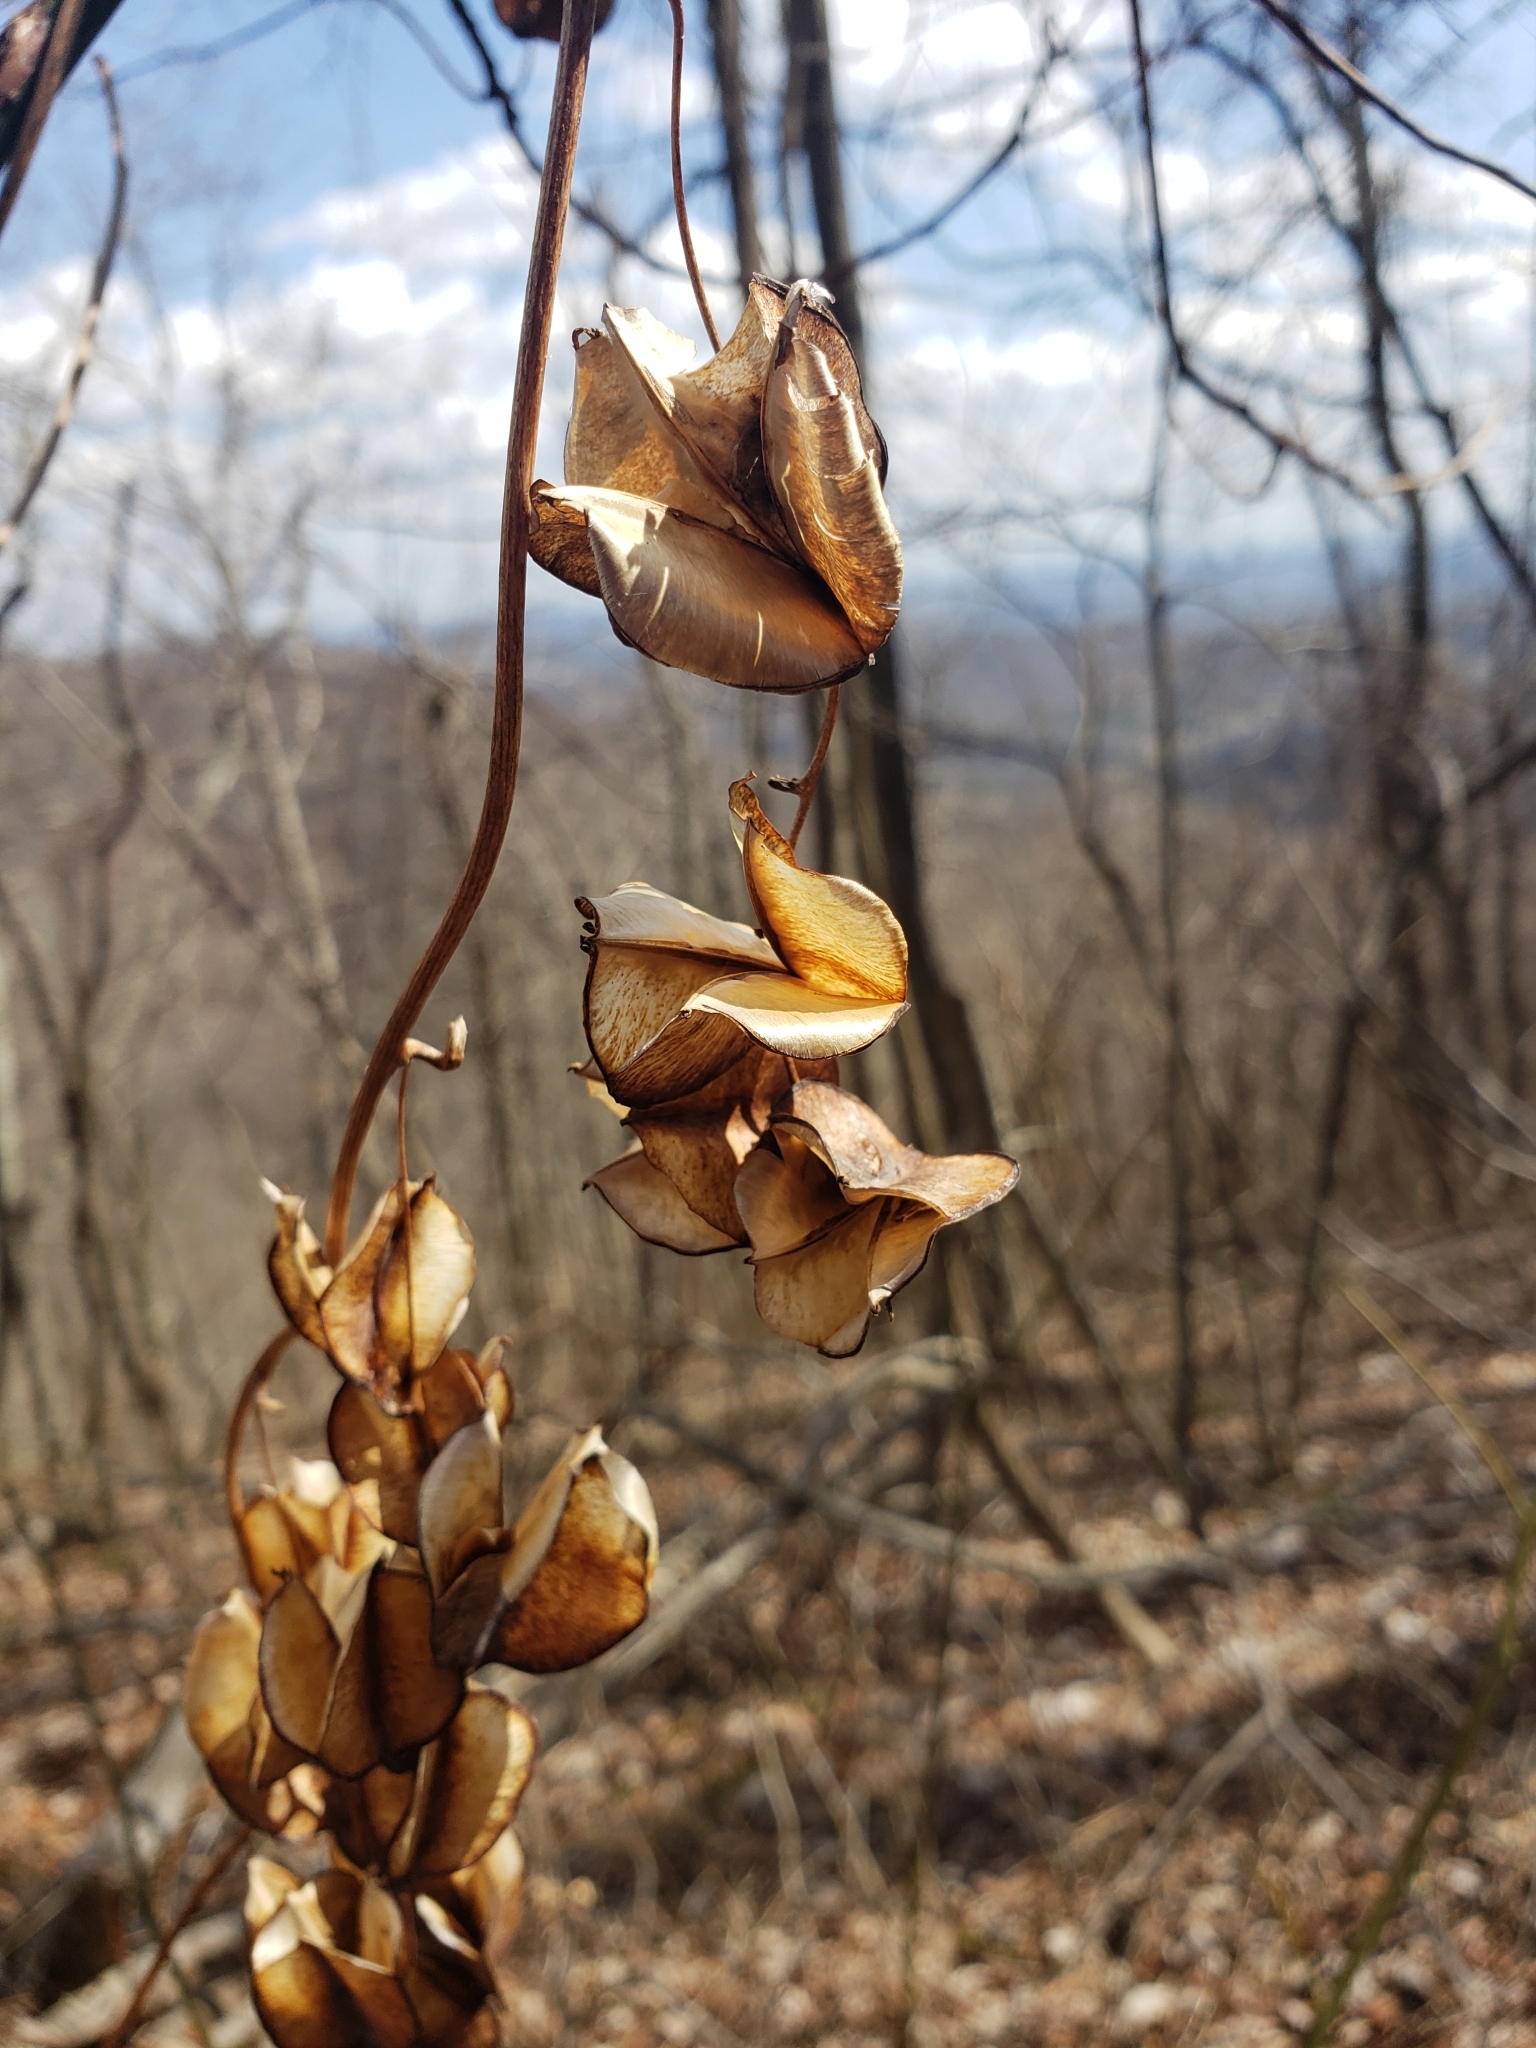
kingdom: Plantae
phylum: Tracheophyta
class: Liliopsida
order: Dioscoreales
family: Dioscoreaceae
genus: Dioscorea
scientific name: Dioscorea villosa
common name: Wild yam
